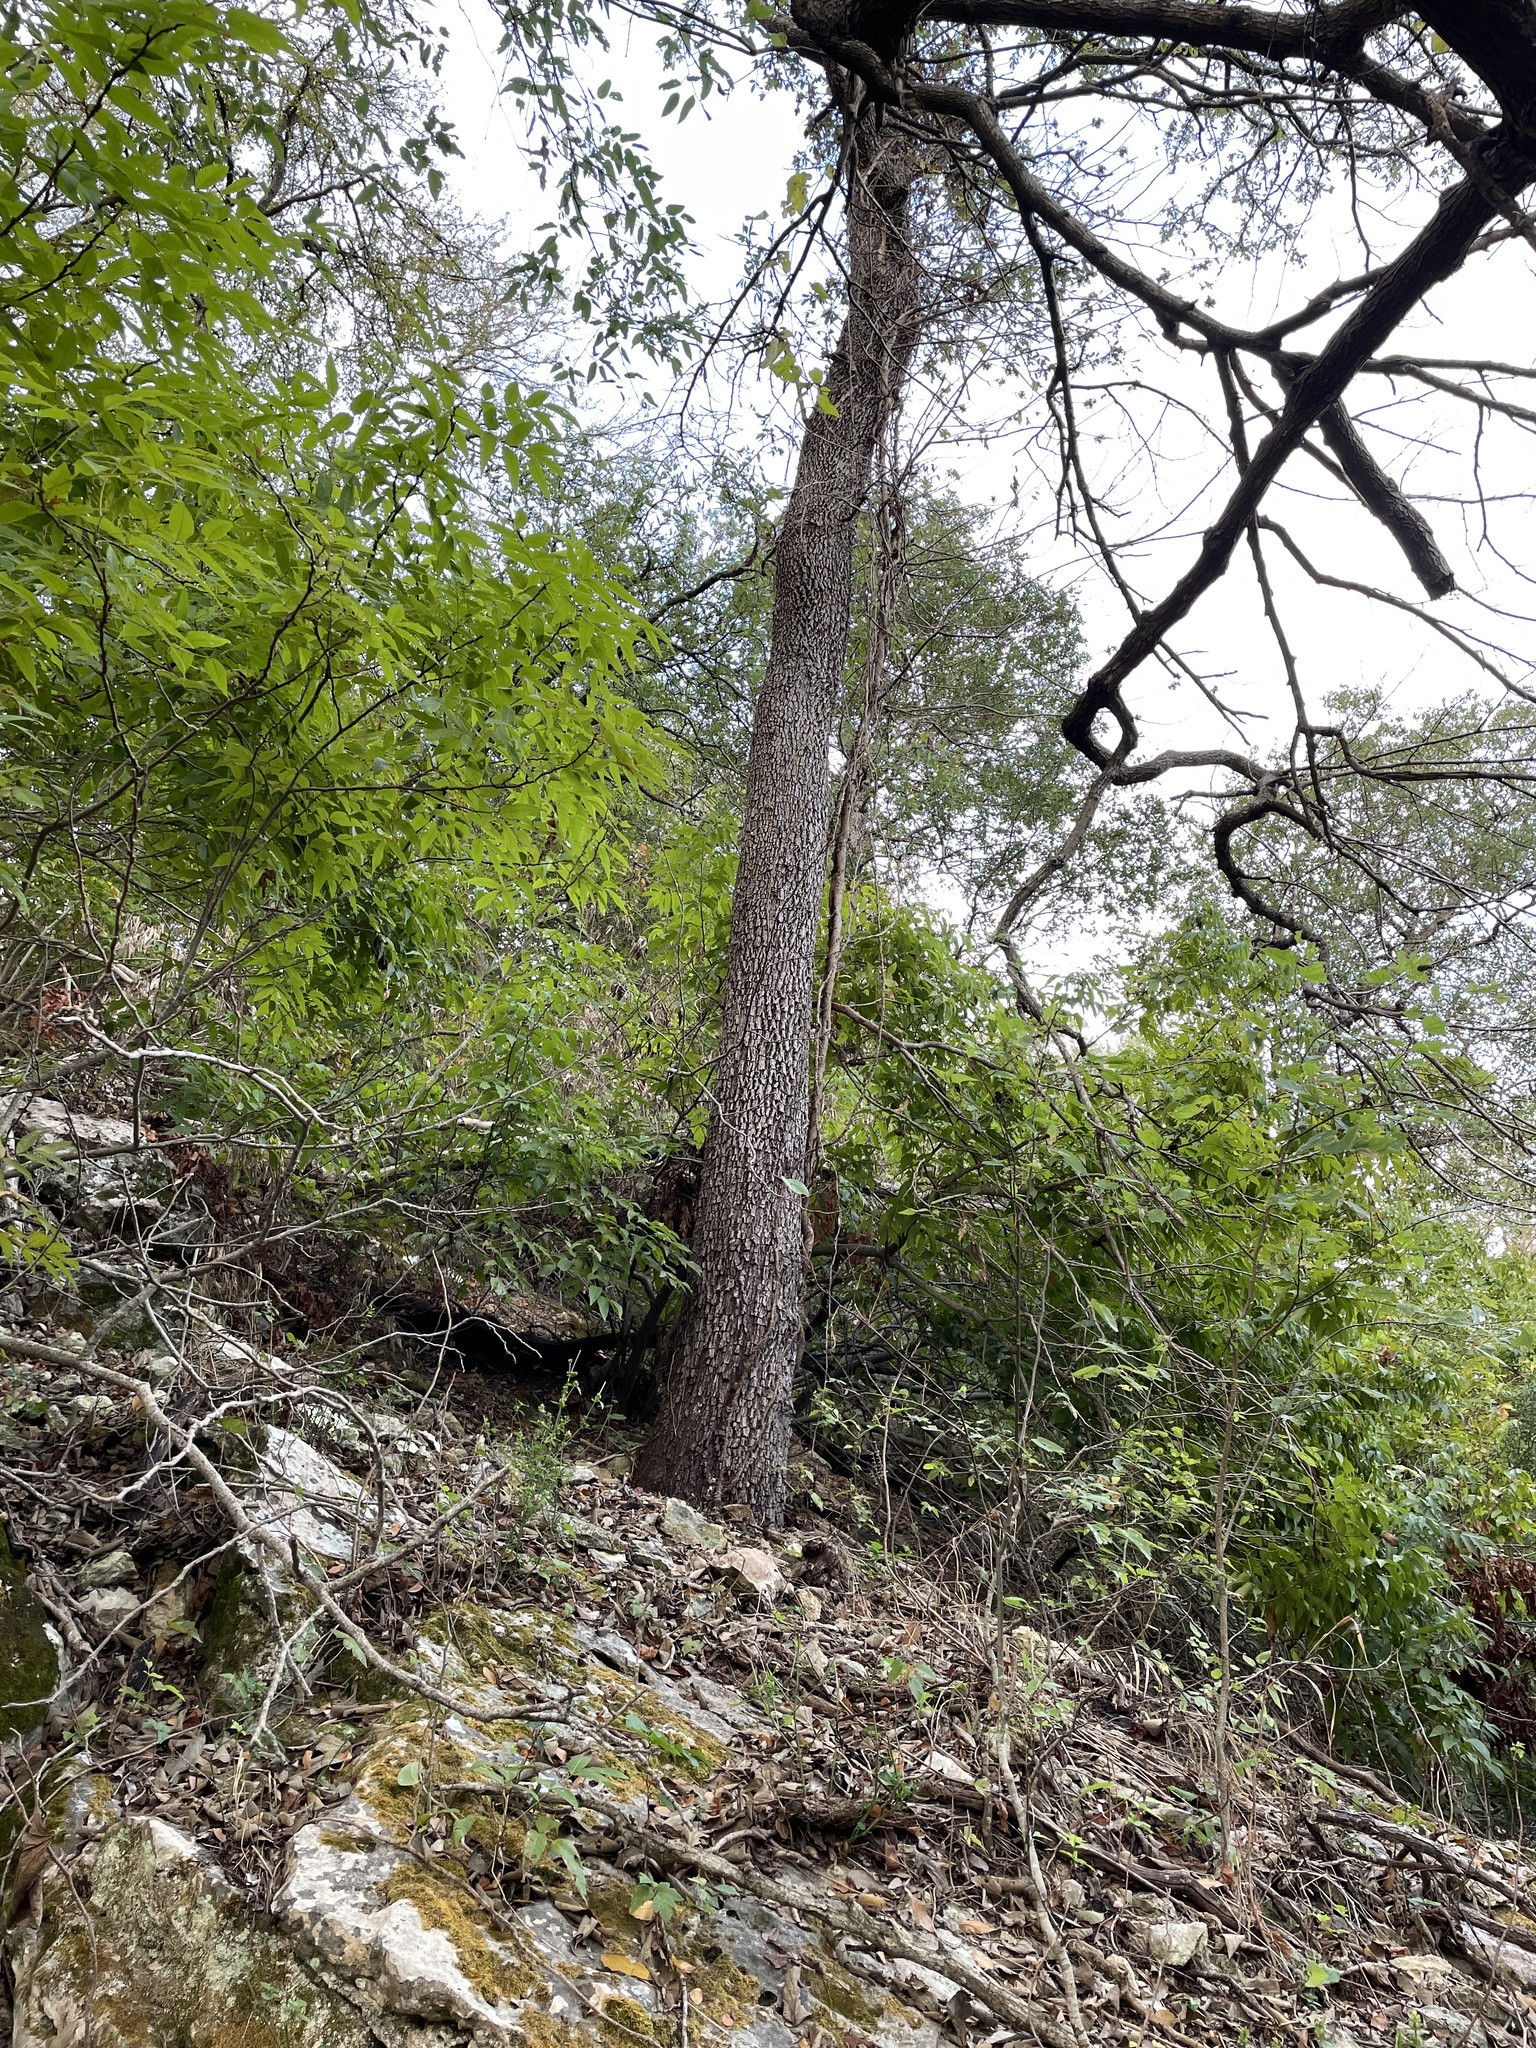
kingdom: Plantae
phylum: Tracheophyta
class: Magnoliopsida
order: Ericales
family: Sapotaceae
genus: Sideroxylon
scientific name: Sideroxylon lanuginosum
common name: Chittamwood
